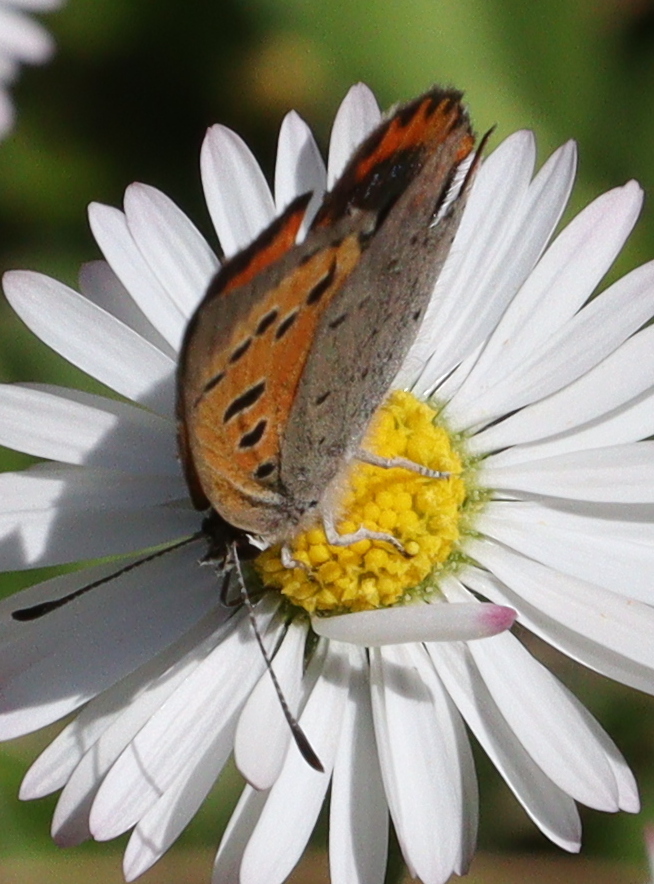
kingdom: Animalia
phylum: Arthropoda
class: Insecta
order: Lepidoptera
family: Lycaenidae
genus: Lycaena
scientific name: Lycaena phlaeas
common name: Small copper
